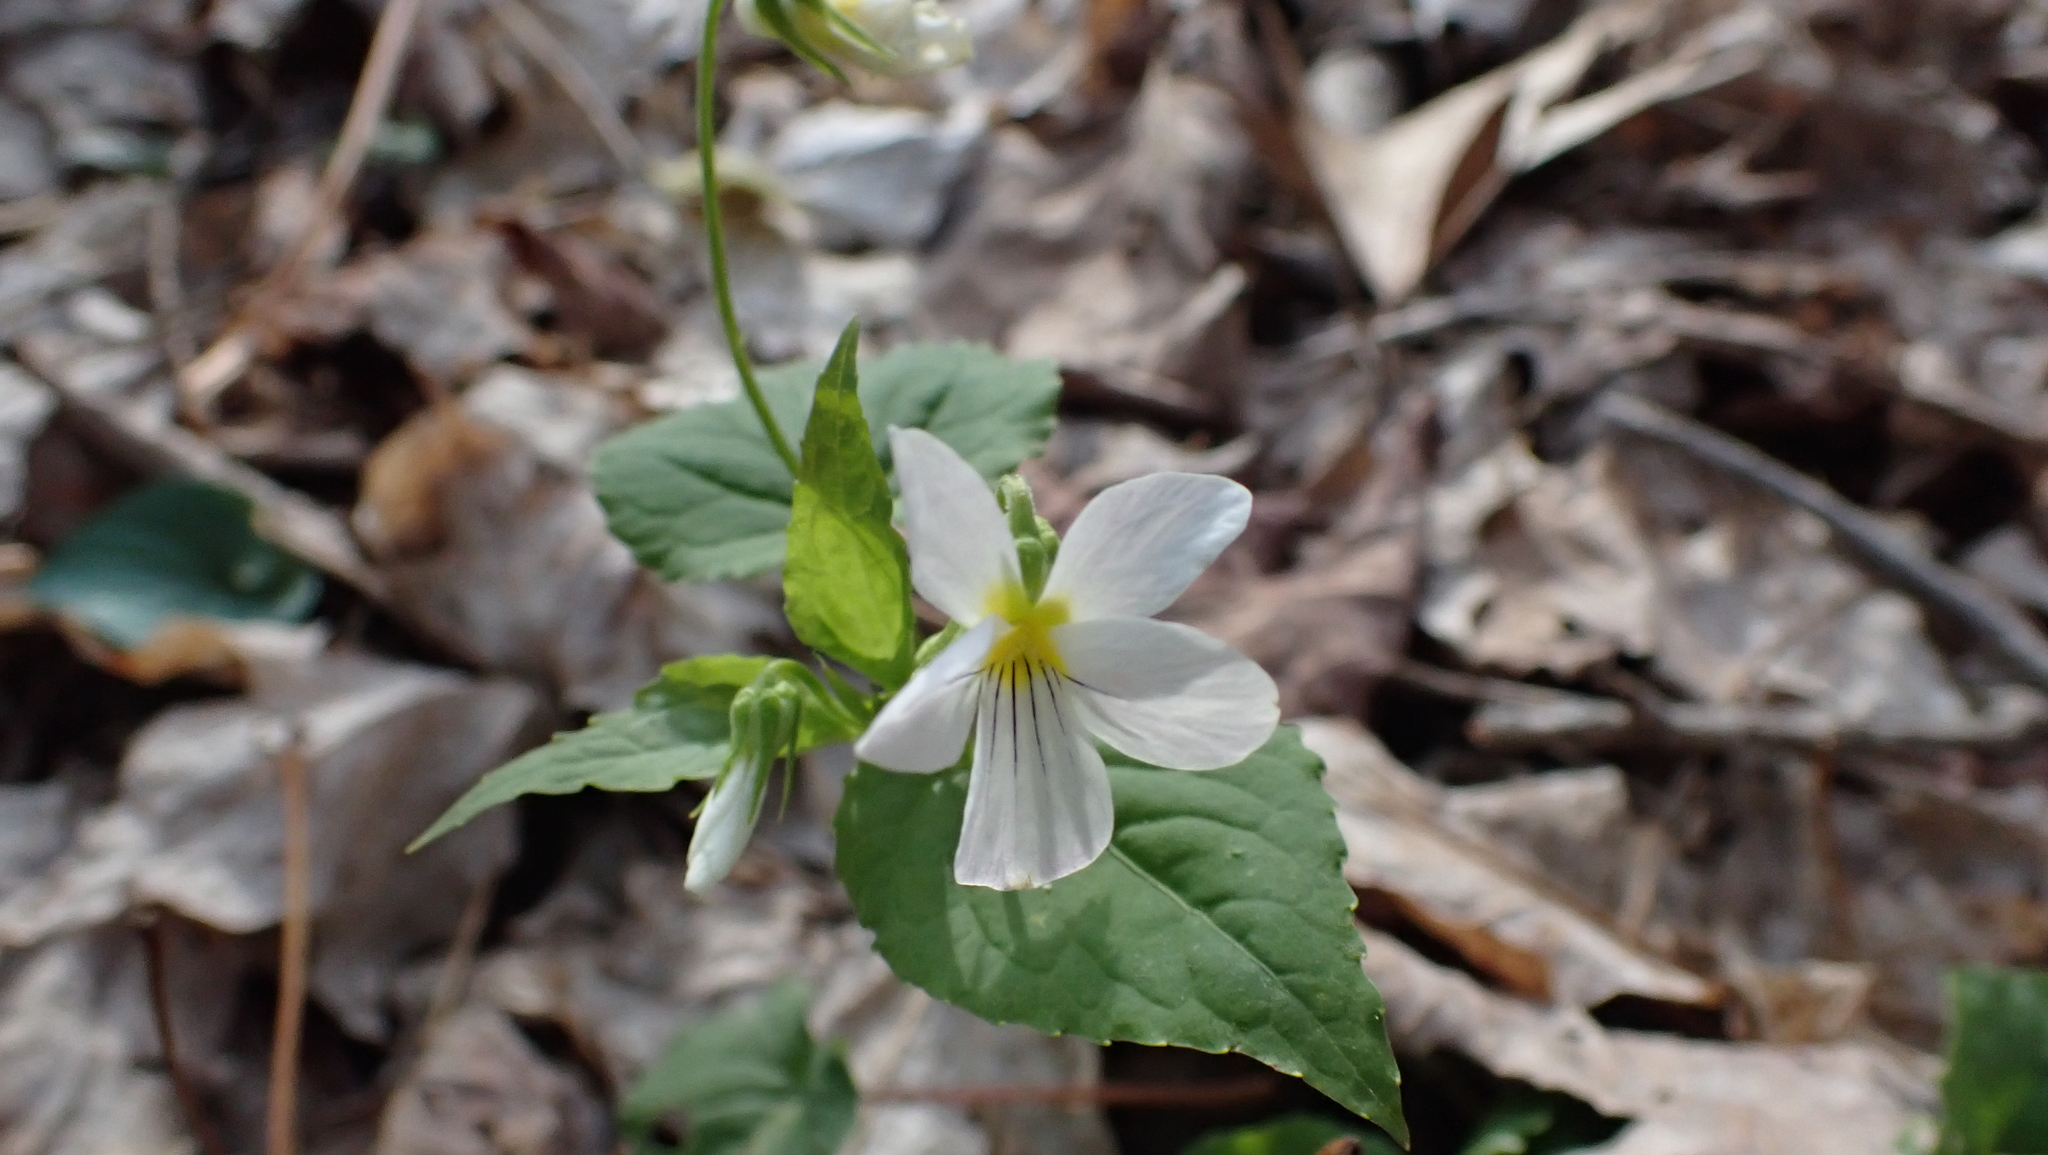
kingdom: Plantae
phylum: Tracheophyta
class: Magnoliopsida
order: Malpighiales
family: Violaceae
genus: Viola
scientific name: Viola canadensis
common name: Canada violet
